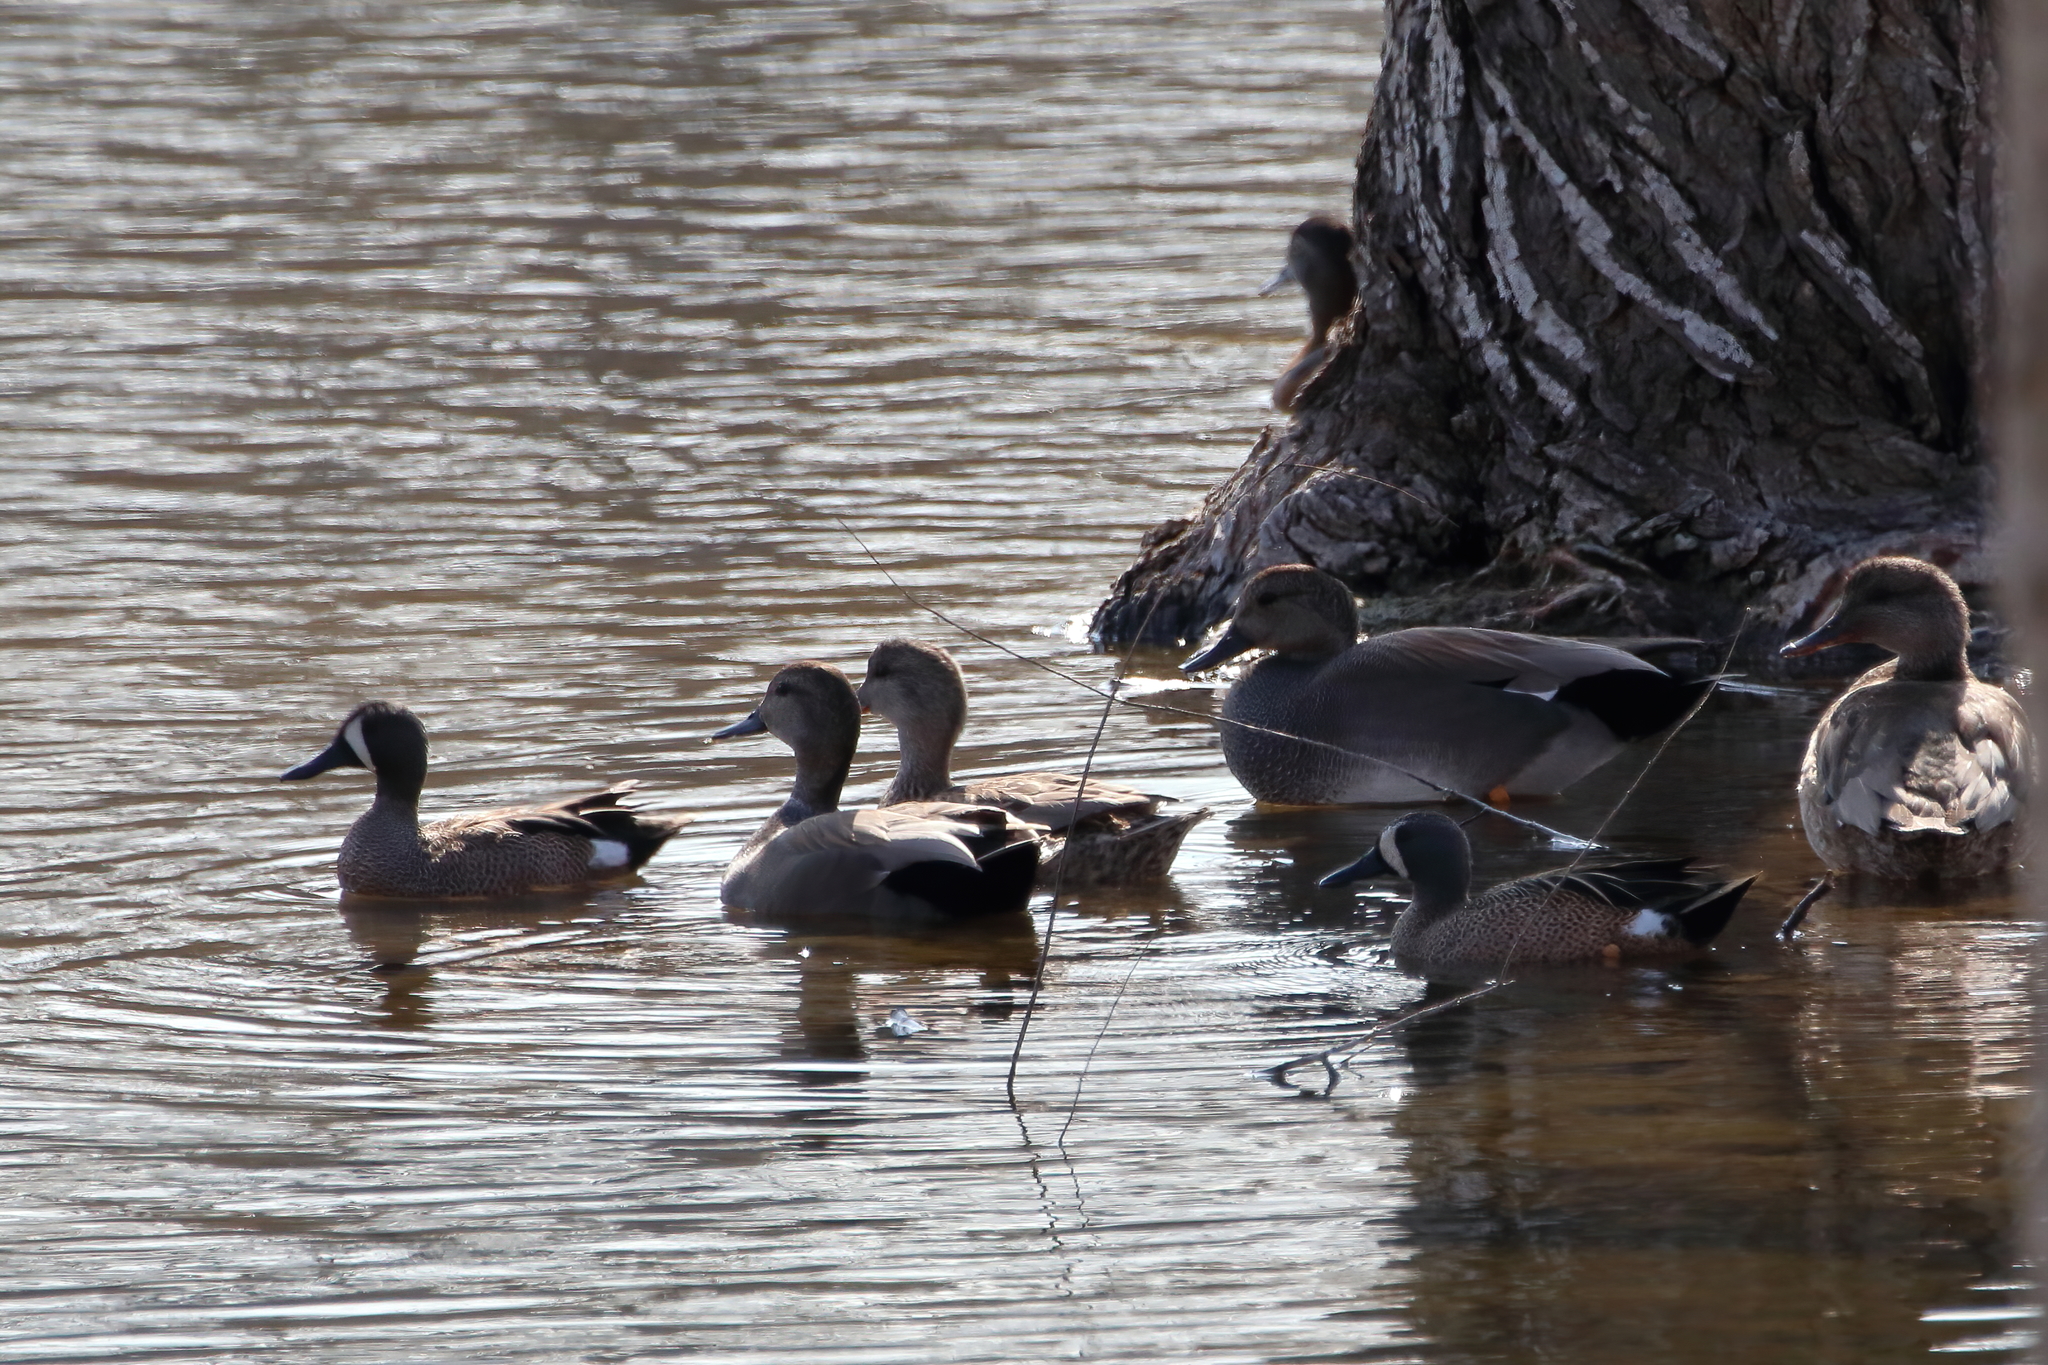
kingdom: Animalia
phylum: Chordata
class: Aves
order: Anseriformes
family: Anatidae
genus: Mareca
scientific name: Mareca strepera
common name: Gadwall
